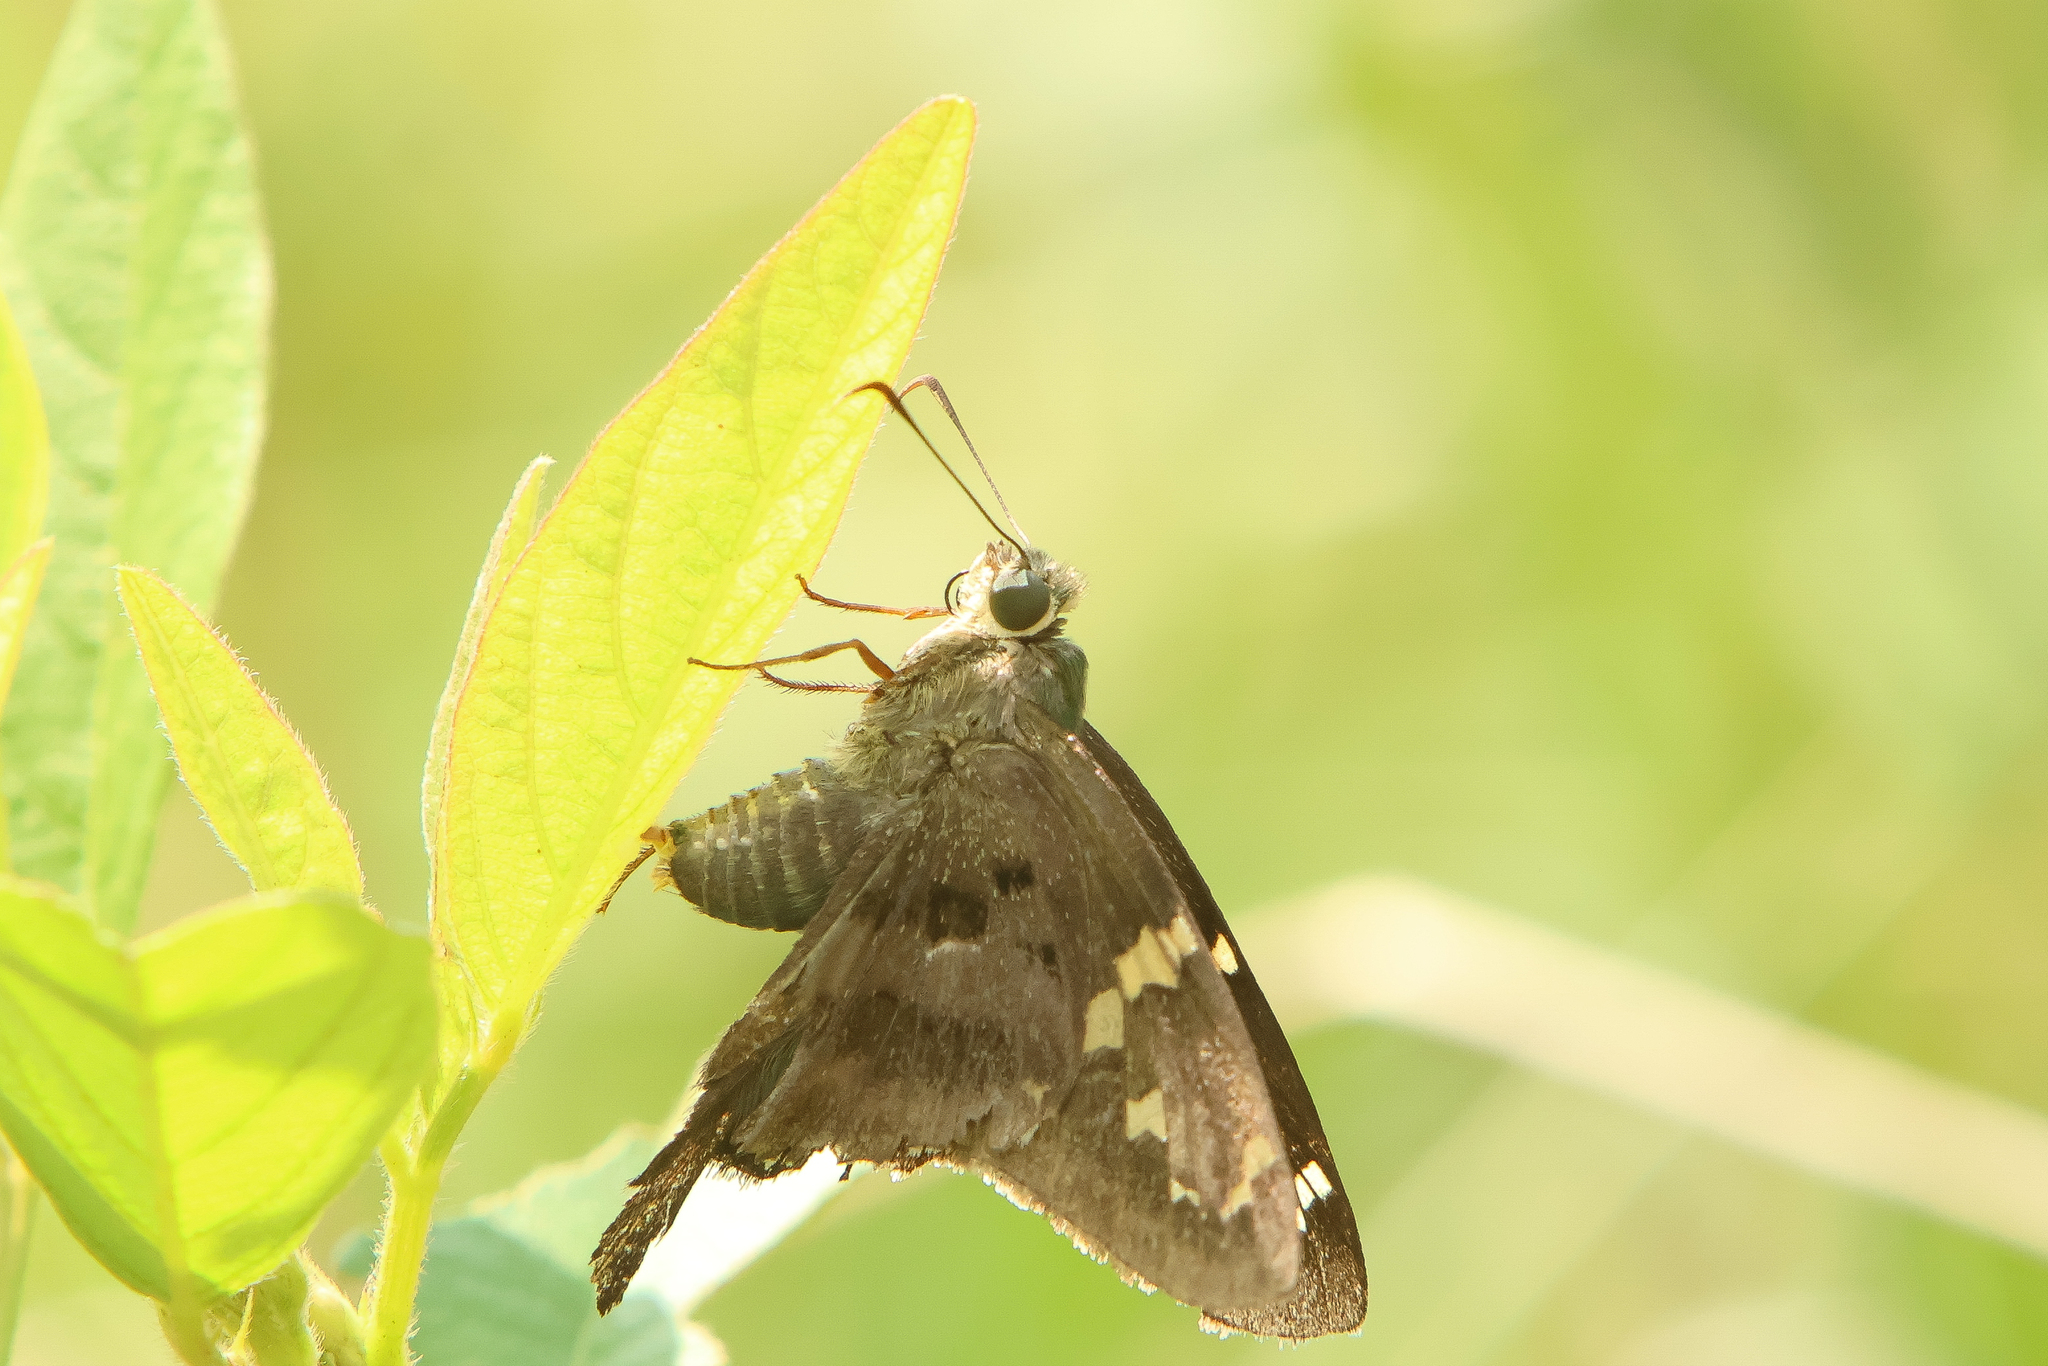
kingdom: Animalia
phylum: Arthropoda
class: Insecta
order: Lepidoptera
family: Hesperiidae
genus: Urbanus
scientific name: Urbanus proteus
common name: Long-tailed skipper
